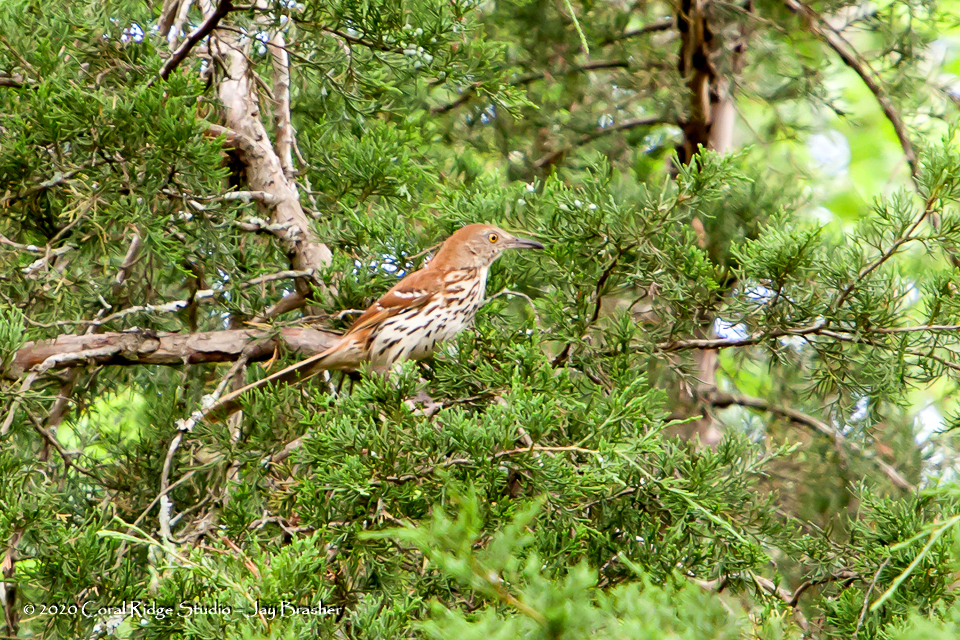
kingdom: Animalia
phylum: Chordata
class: Aves
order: Passeriformes
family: Mimidae
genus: Toxostoma
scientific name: Toxostoma rufum
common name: Brown thrasher
